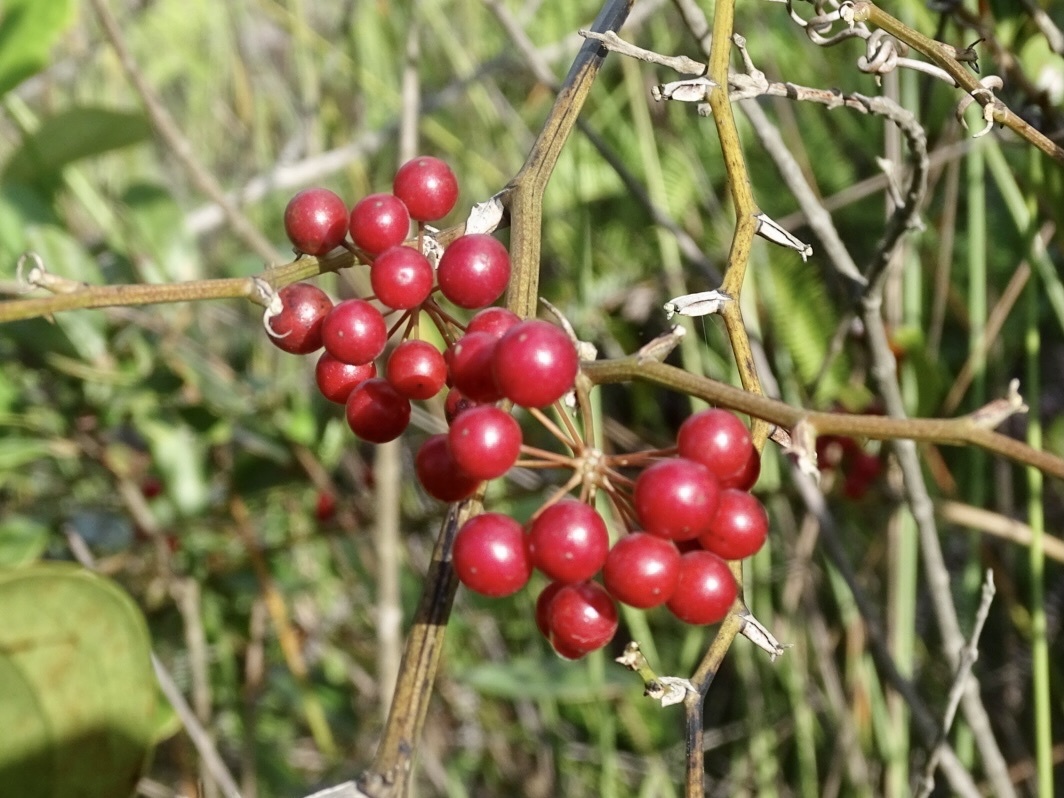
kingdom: Plantae
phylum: Tracheophyta
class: Liliopsida
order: Liliales
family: Smilacaceae
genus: Smilax
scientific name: Smilax china
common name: Chinaroot
